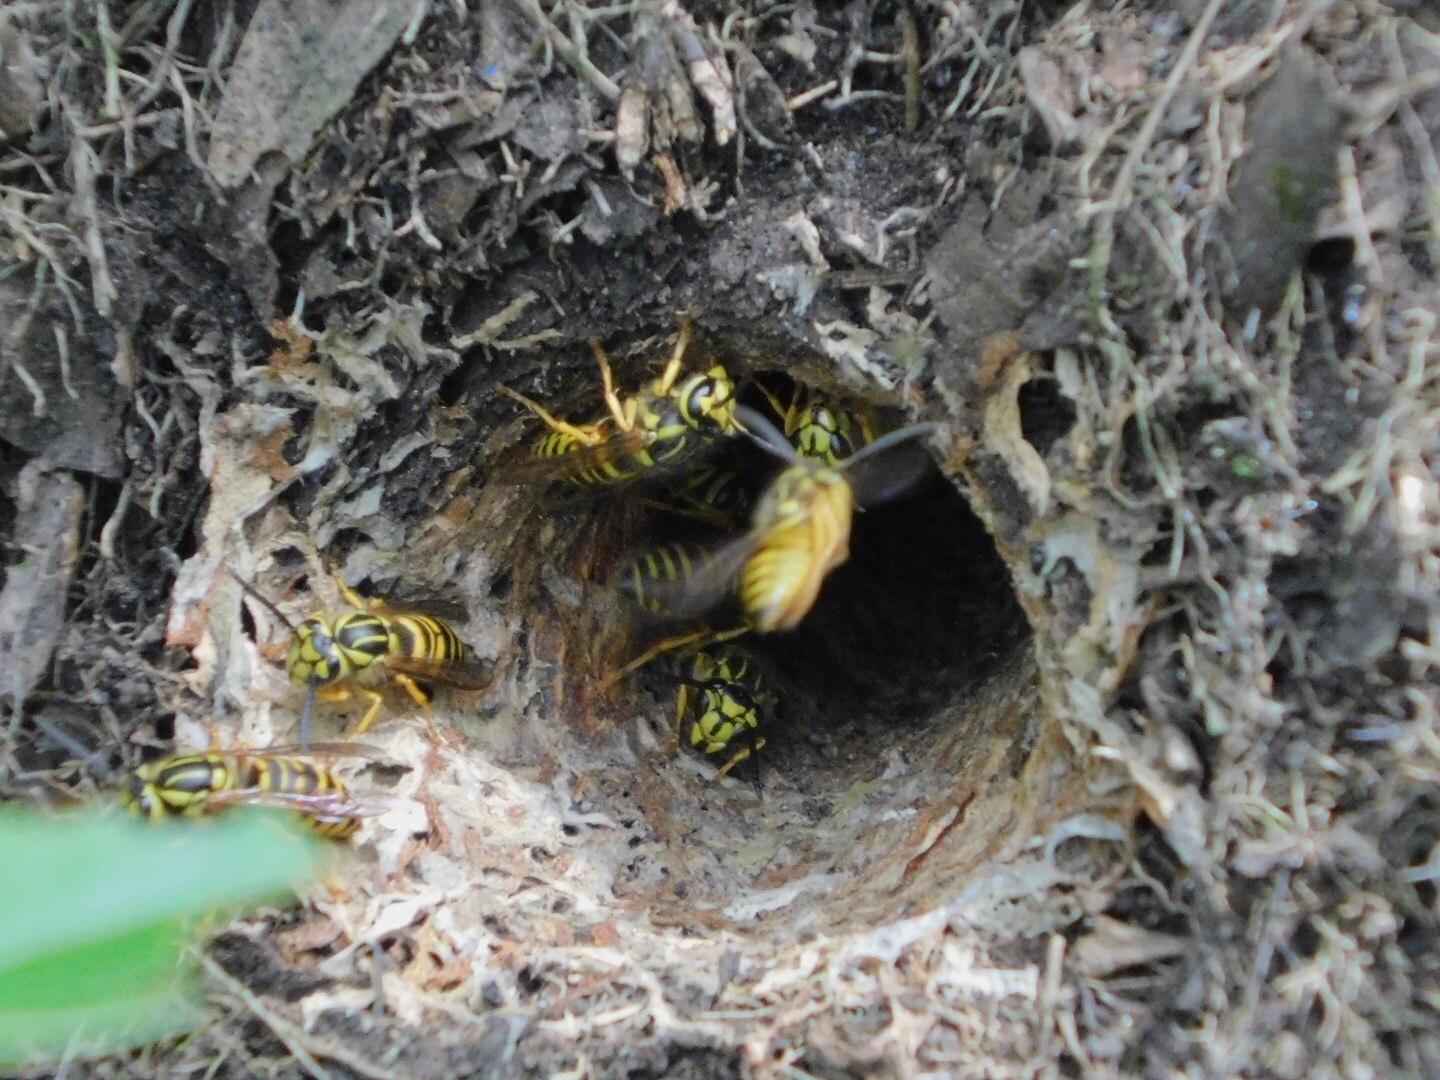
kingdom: Animalia
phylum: Arthropoda
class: Insecta
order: Hymenoptera
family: Vespidae
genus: Vespula
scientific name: Vespula squamosa
